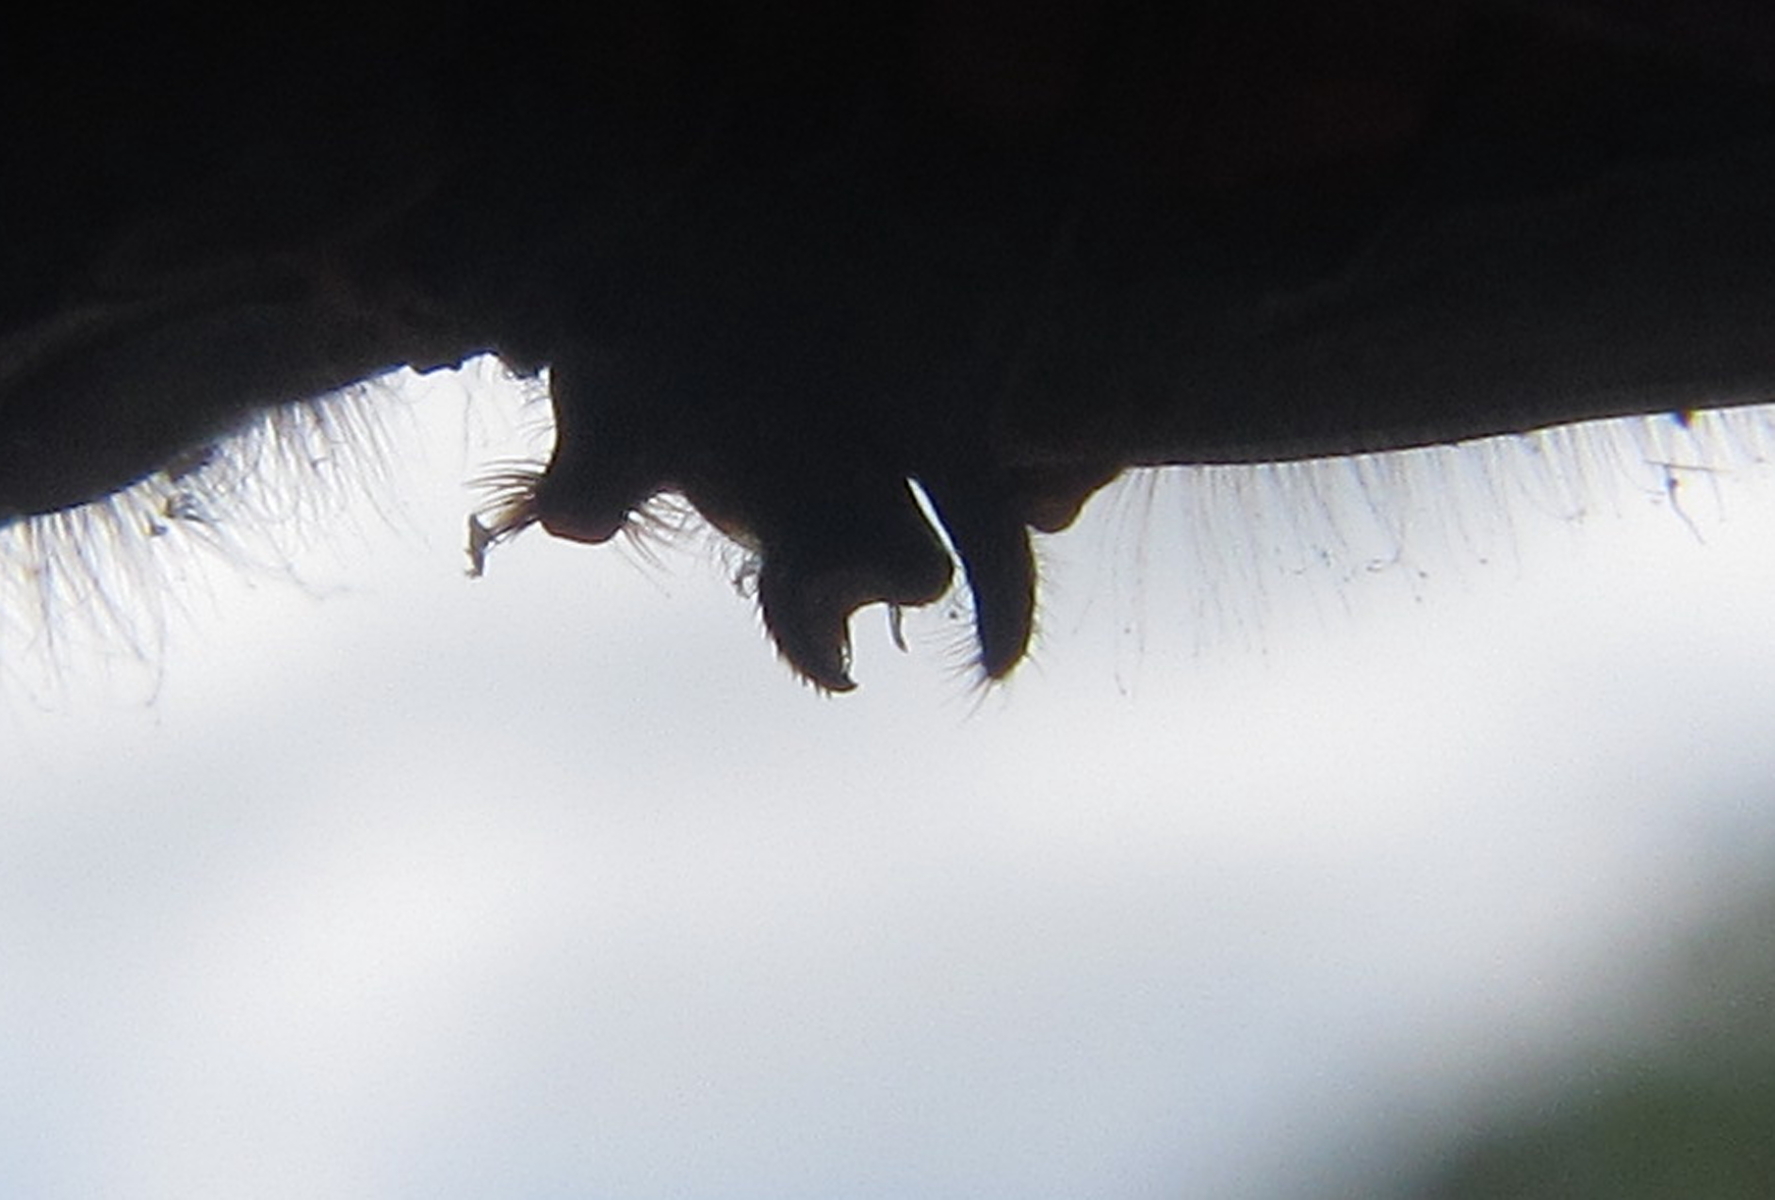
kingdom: Animalia
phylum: Arthropoda
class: Insecta
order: Odonata
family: Libellulidae
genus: Trithemis
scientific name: Trithemis furva
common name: Dark dropwing
